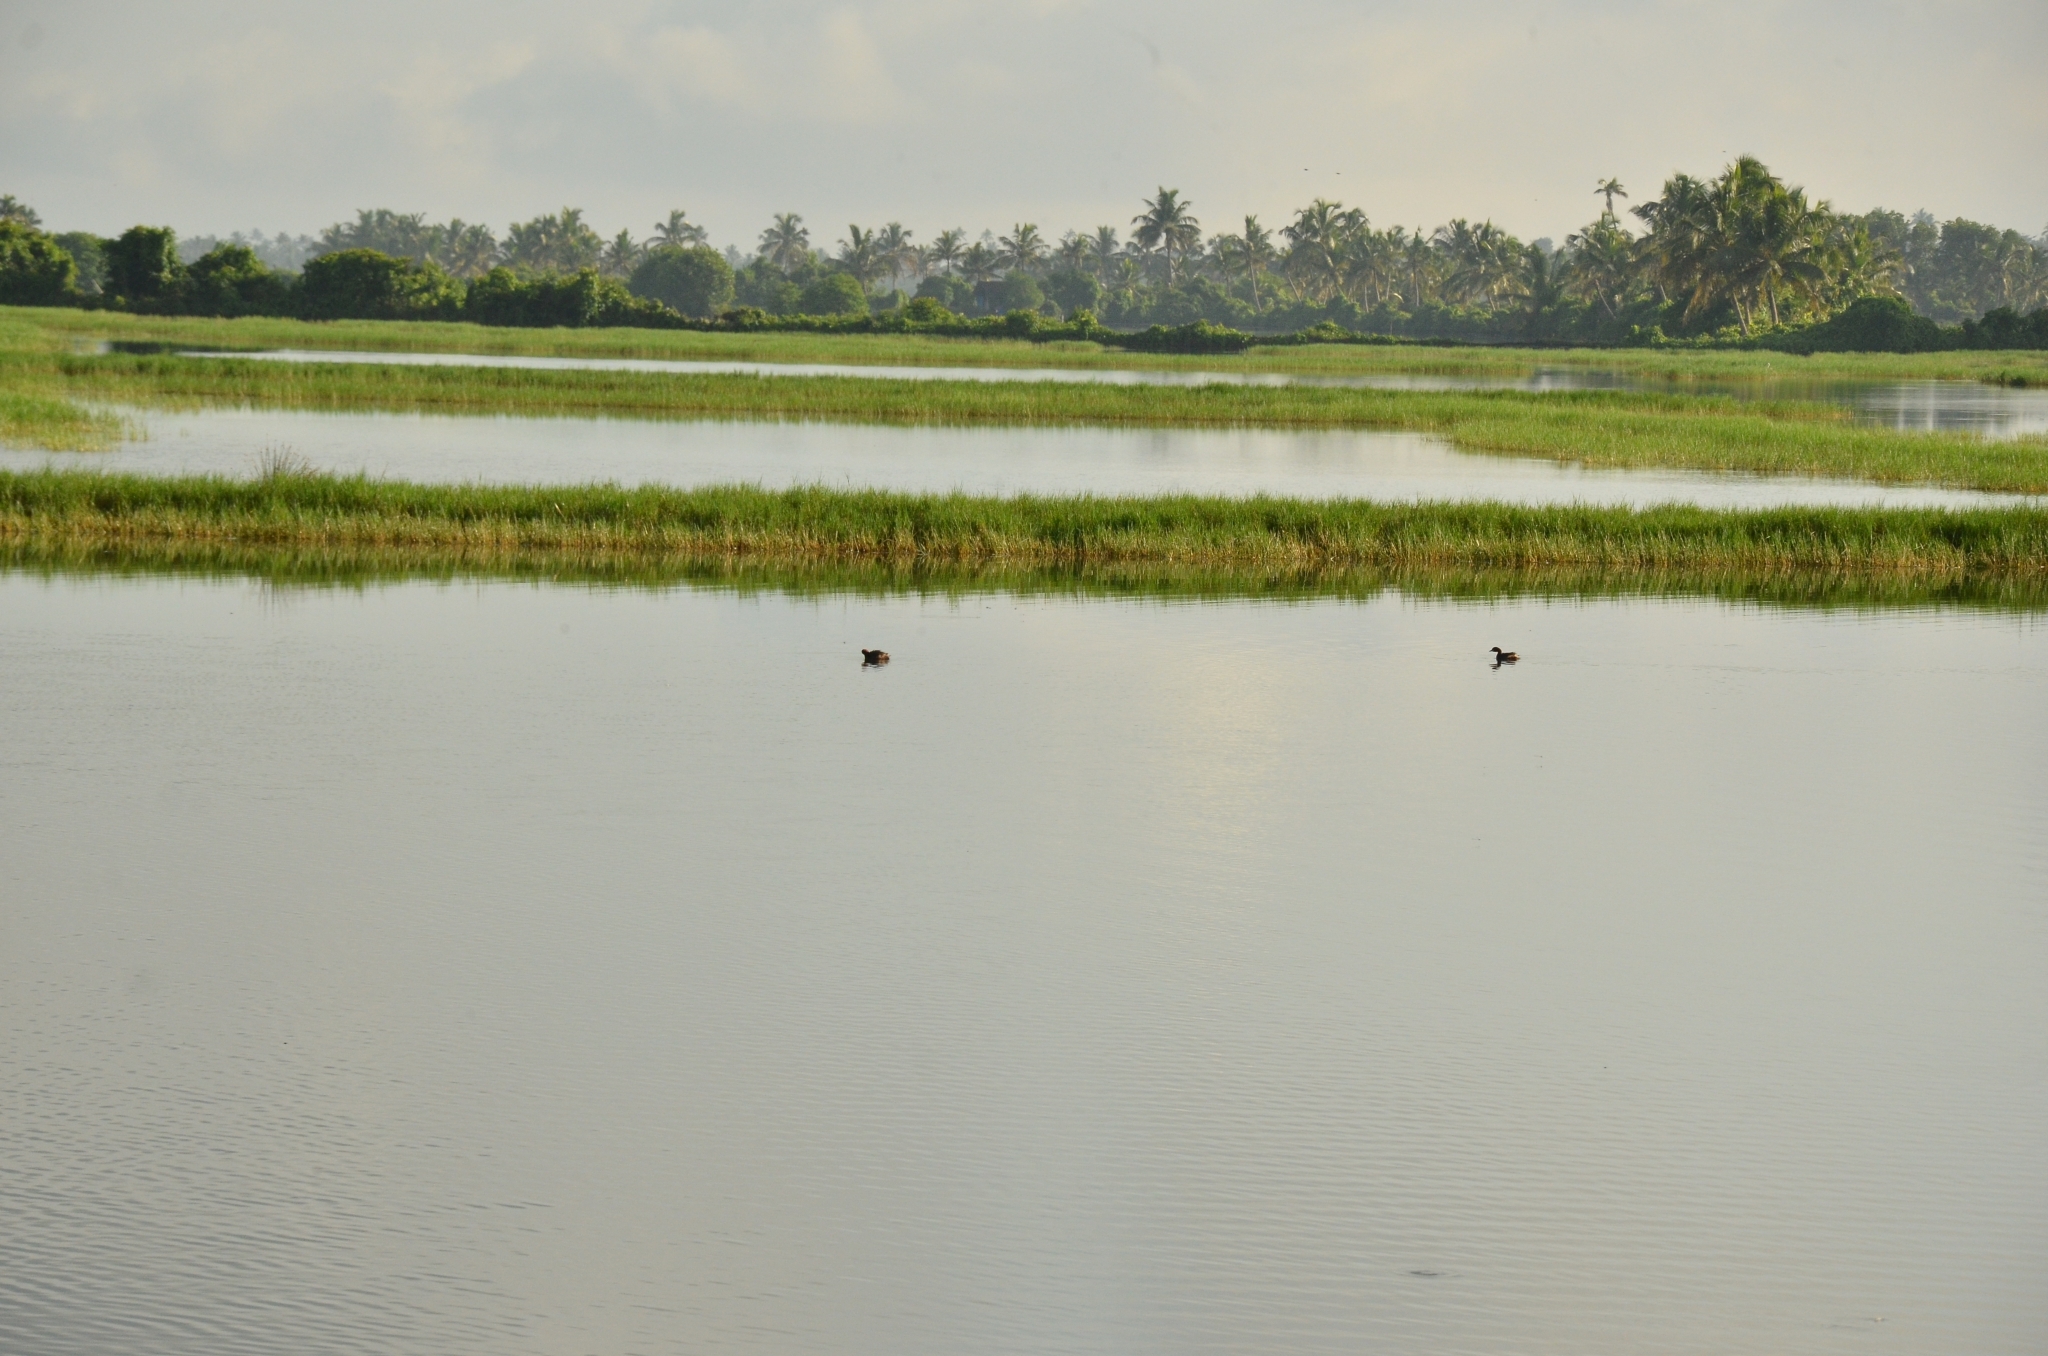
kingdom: Animalia
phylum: Chordata
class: Aves
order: Podicipediformes
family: Podicipedidae
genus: Tachybaptus
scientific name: Tachybaptus ruficollis
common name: Little grebe
